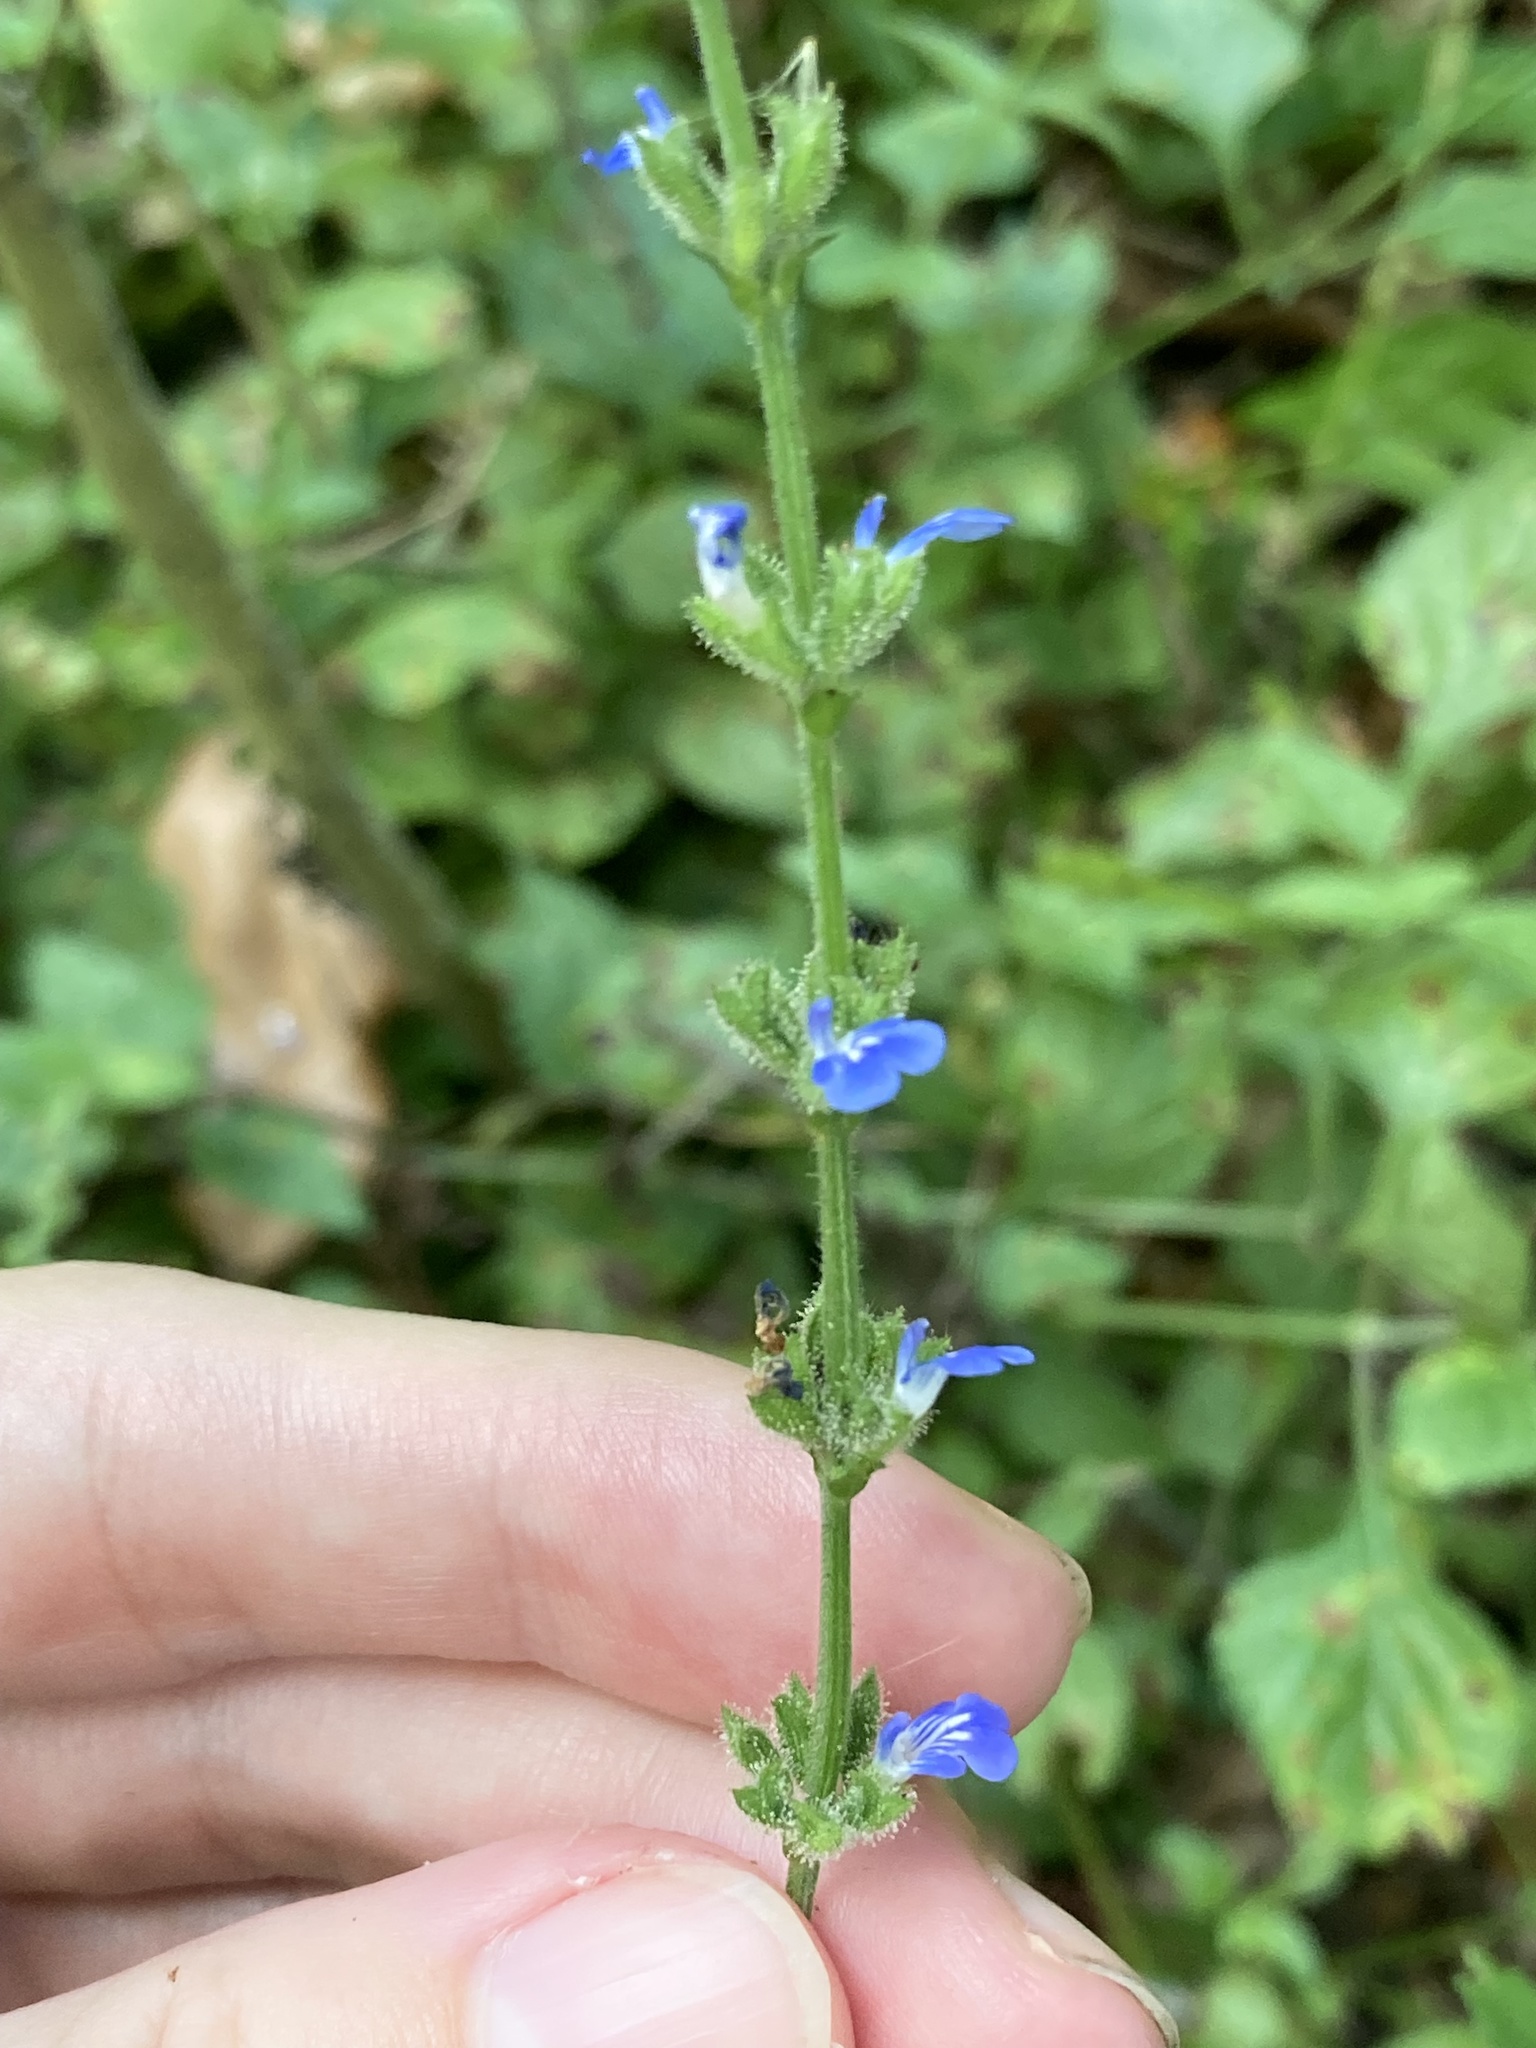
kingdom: Plantae
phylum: Tracheophyta
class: Magnoliopsida
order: Lamiales
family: Lamiaceae
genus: Salvia
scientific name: Salvia misella
